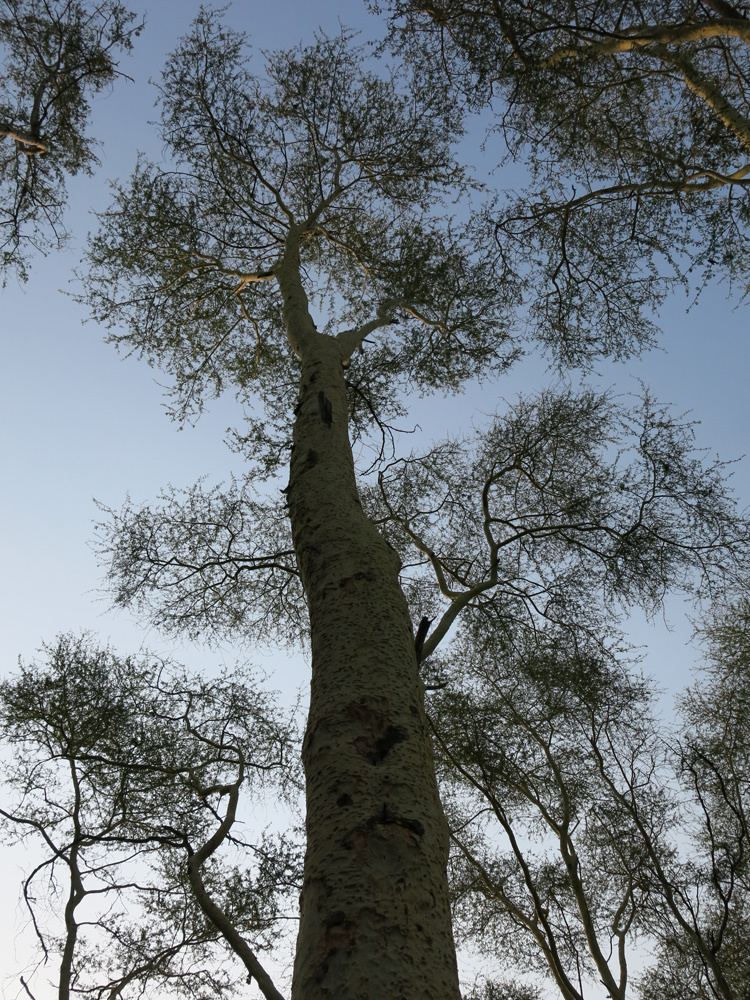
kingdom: Plantae
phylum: Tracheophyta
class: Magnoliopsida
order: Fabales
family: Fabaceae
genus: Vachellia
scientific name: Vachellia xanthophloea
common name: Fever tree
